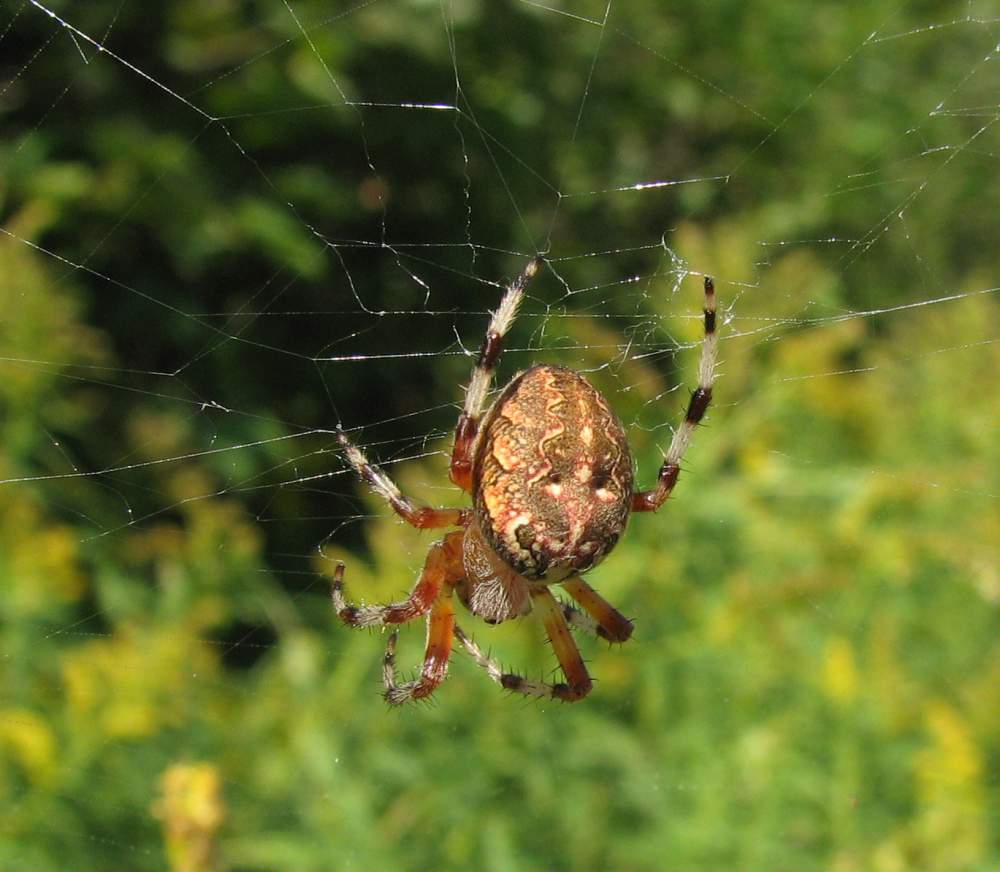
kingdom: Animalia
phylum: Arthropoda
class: Arachnida
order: Araneae
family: Araneidae
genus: Araneus
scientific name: Araneus marmoreus
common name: Marbled orbweaver
